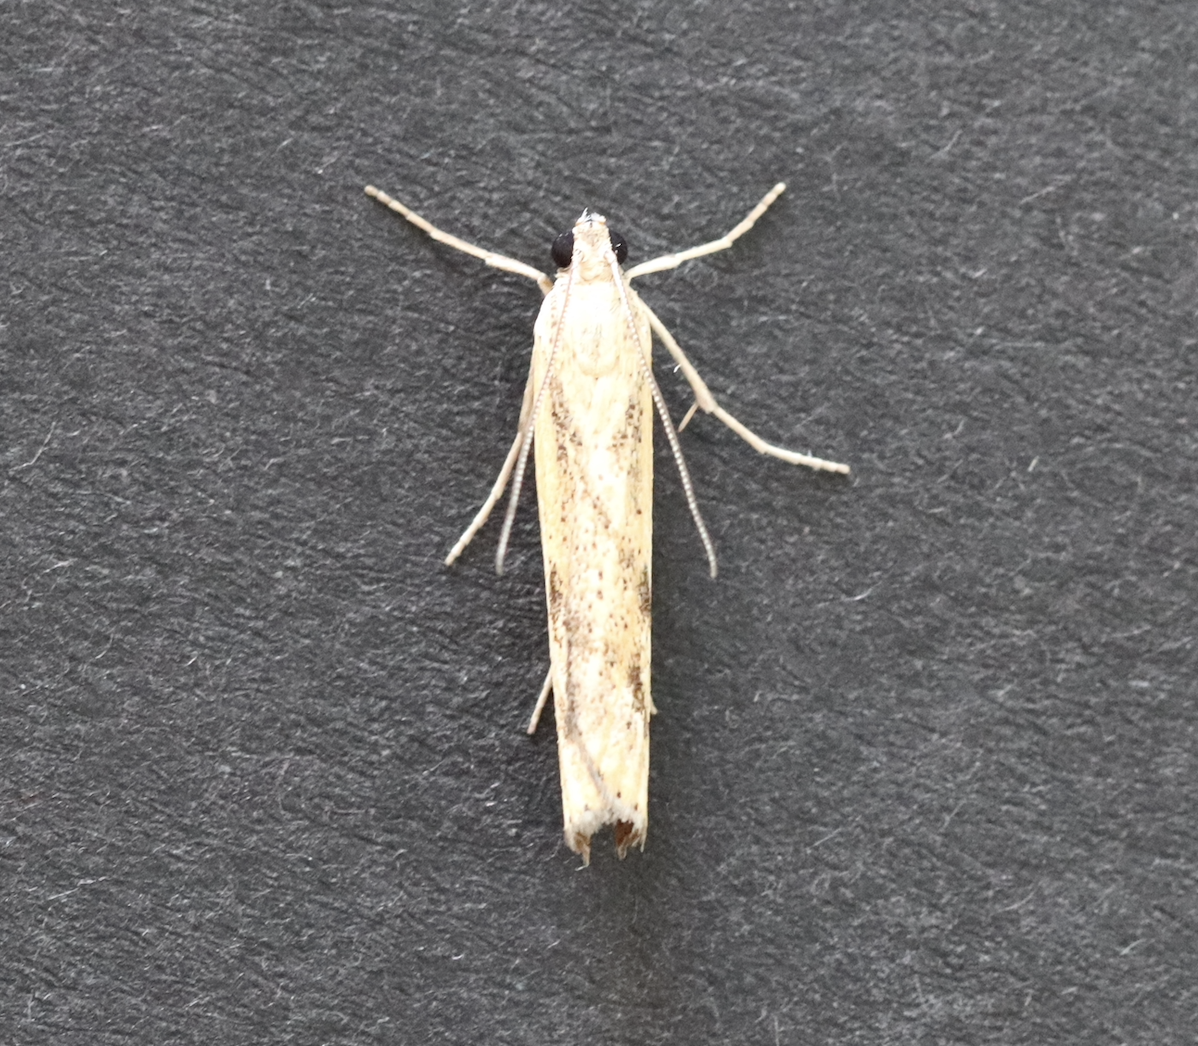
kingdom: Animalia
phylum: Arthropoda
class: Insecta
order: Lepidoptera
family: Crambidae
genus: Agriphila
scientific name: Agriphila inquinatella
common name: Barred grass-veneer
